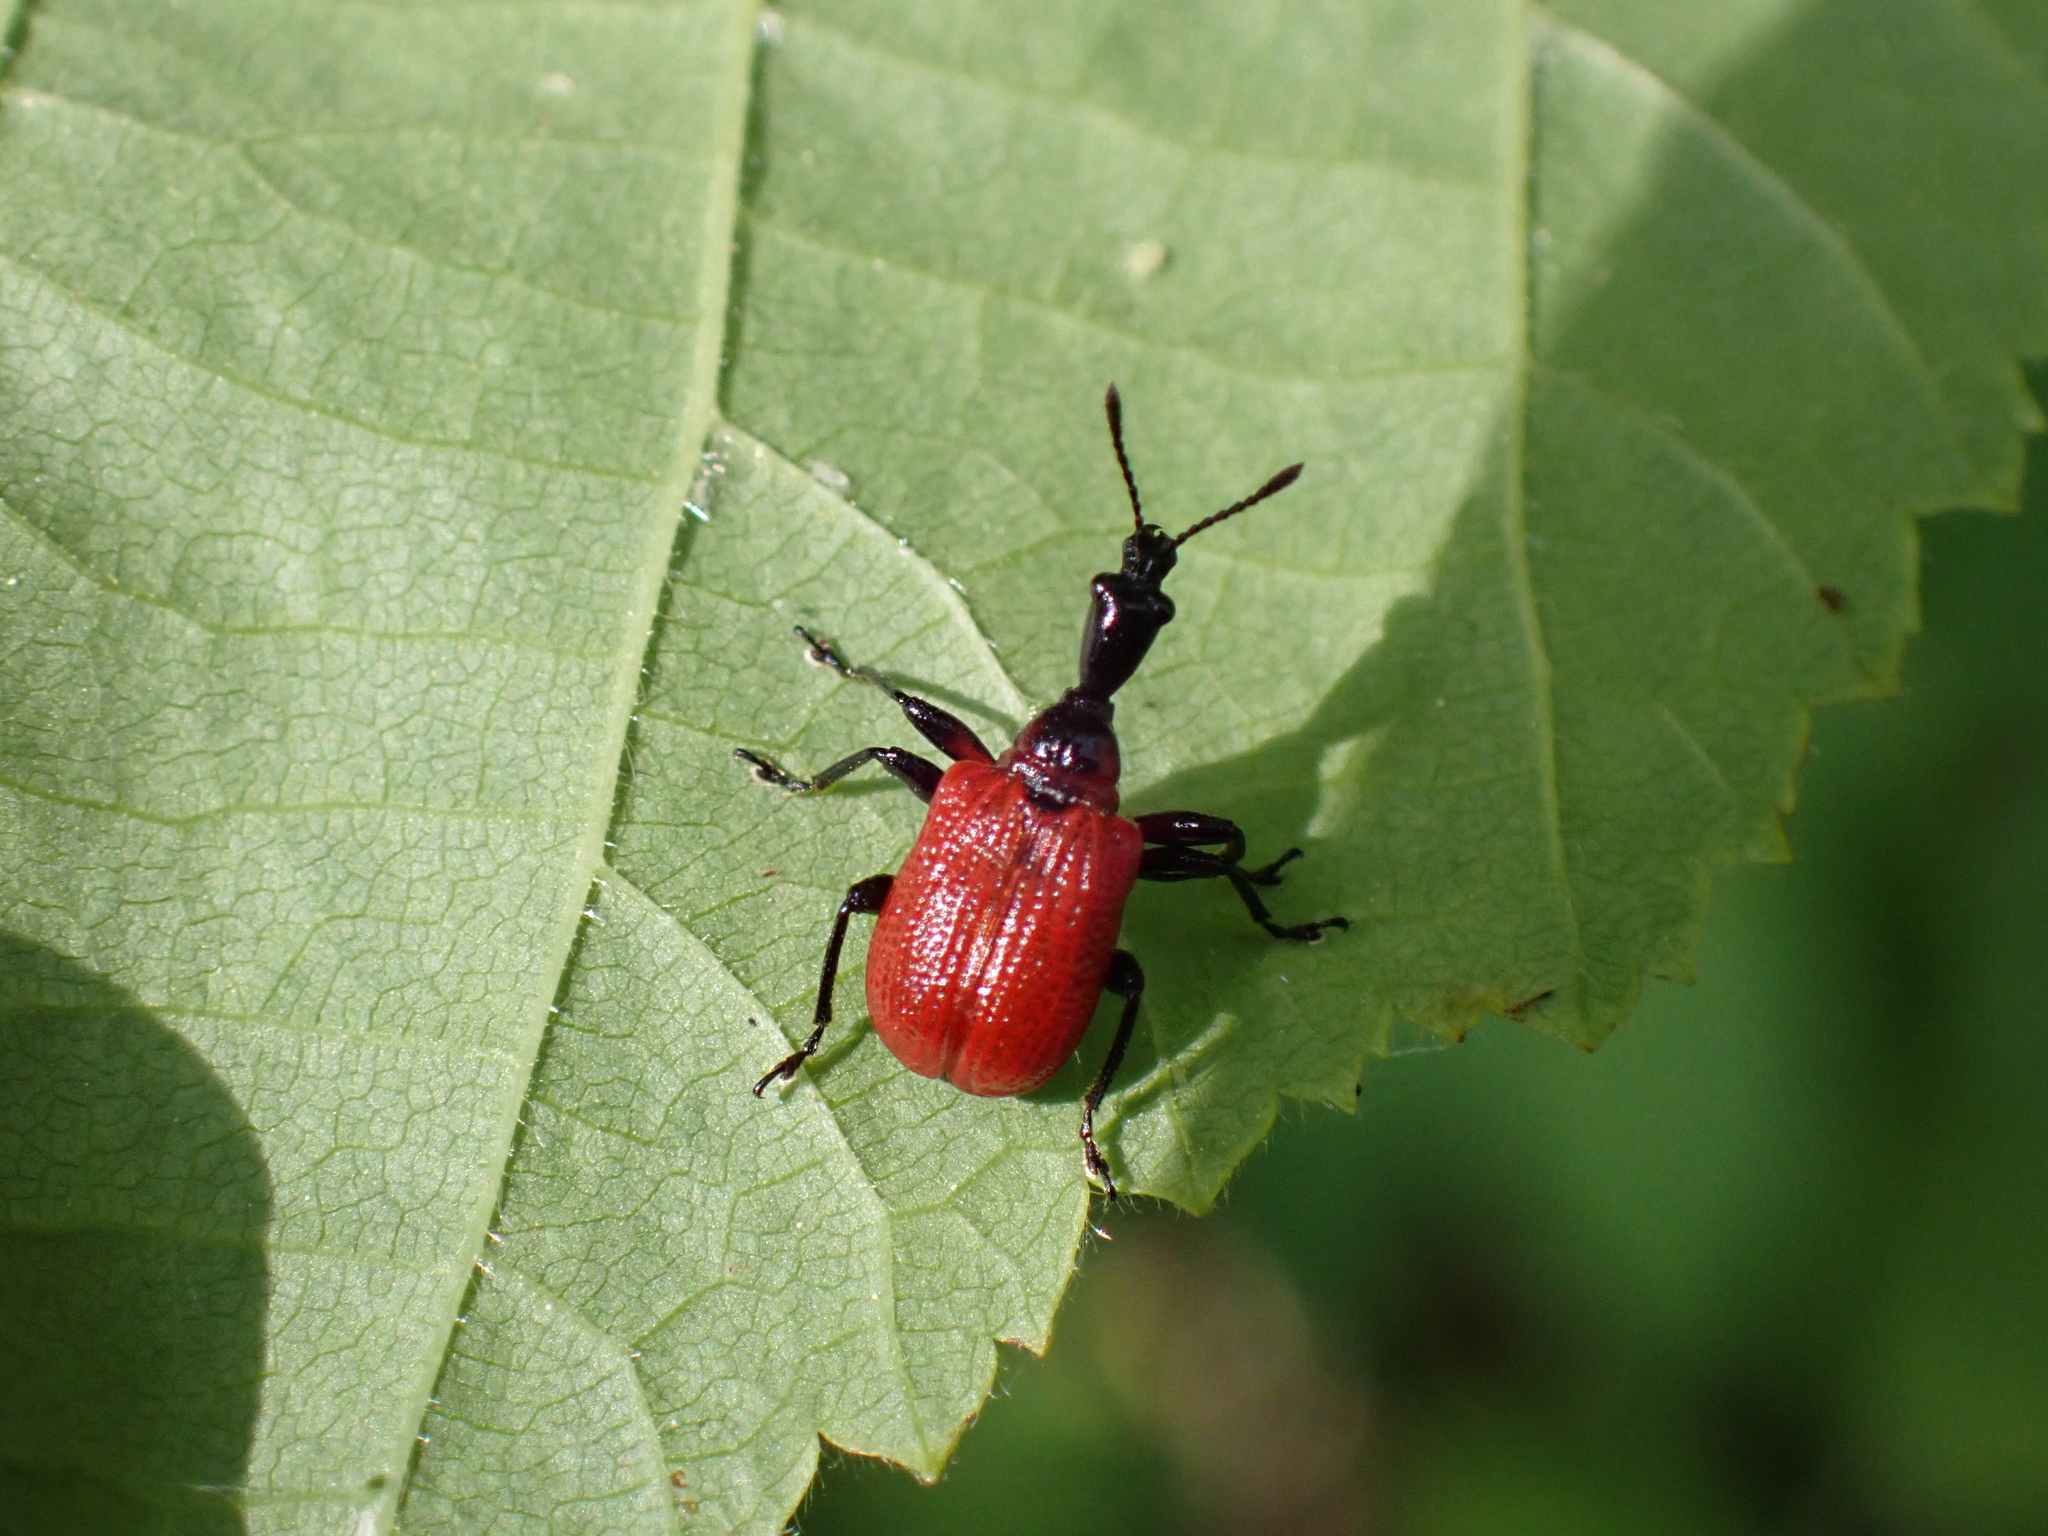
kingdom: Animalia
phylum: Arthropoda
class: Insecta
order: Coleoptera
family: Attelabidae
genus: Apoderus
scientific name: Apoderus coryli
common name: Hazel leaf roller
